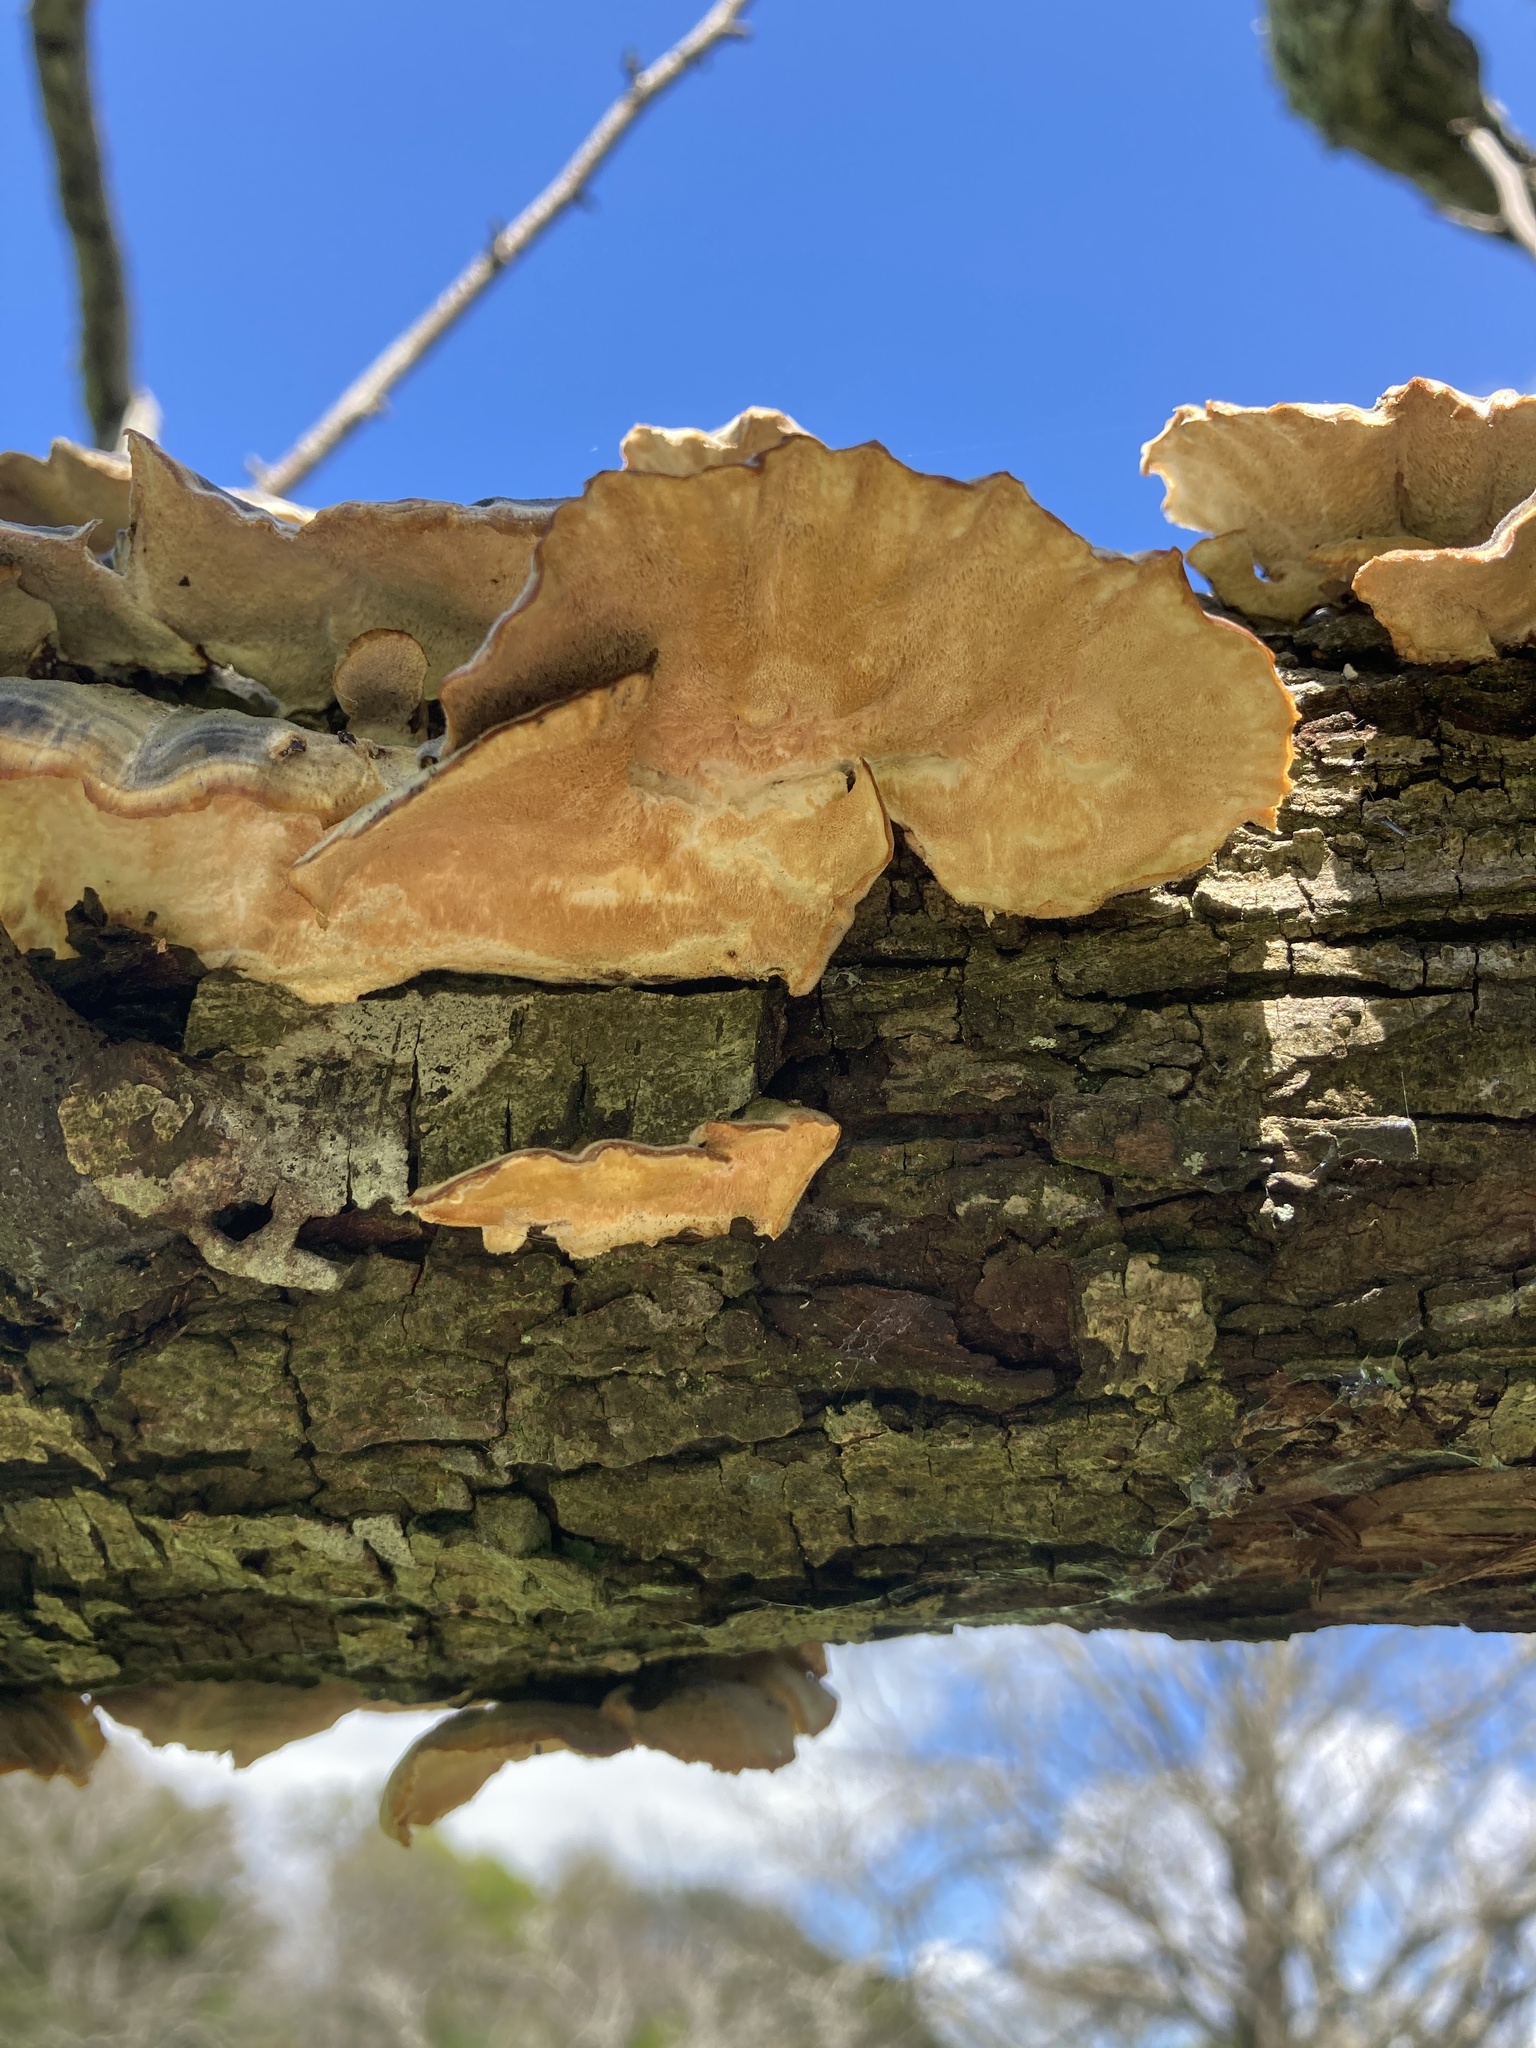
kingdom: Fungi
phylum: Basidiomycota
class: Agaricomycetes
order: Polyporales
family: Polyporaceae
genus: Trametes
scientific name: Trametes versicolor
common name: Turkeytail
